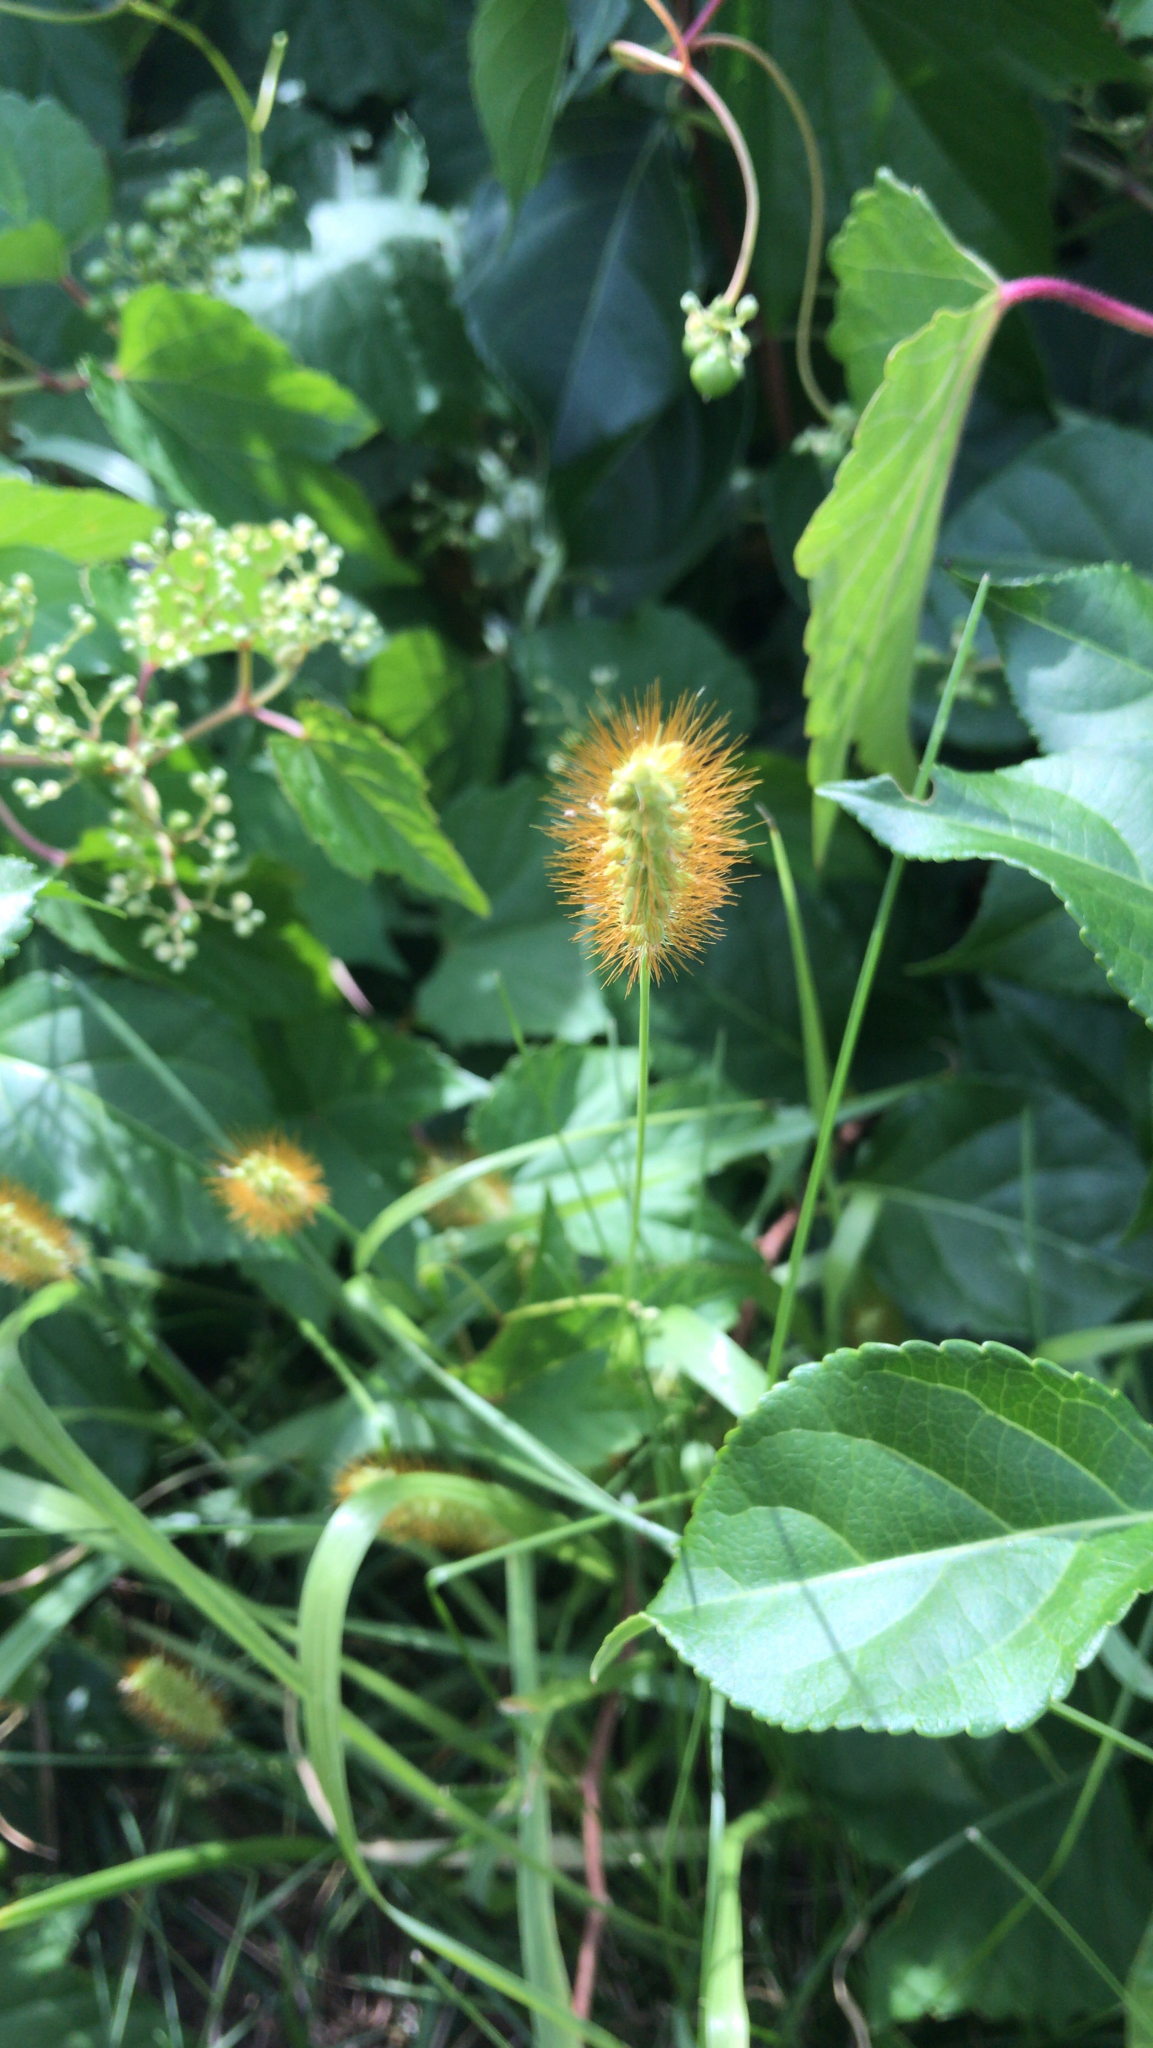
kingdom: Plantae
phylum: Tracheophyta
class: Liliopsida
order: Poales
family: Poaceae
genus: Setaria
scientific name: Setaria pumila
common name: Yellow bristle-grass
